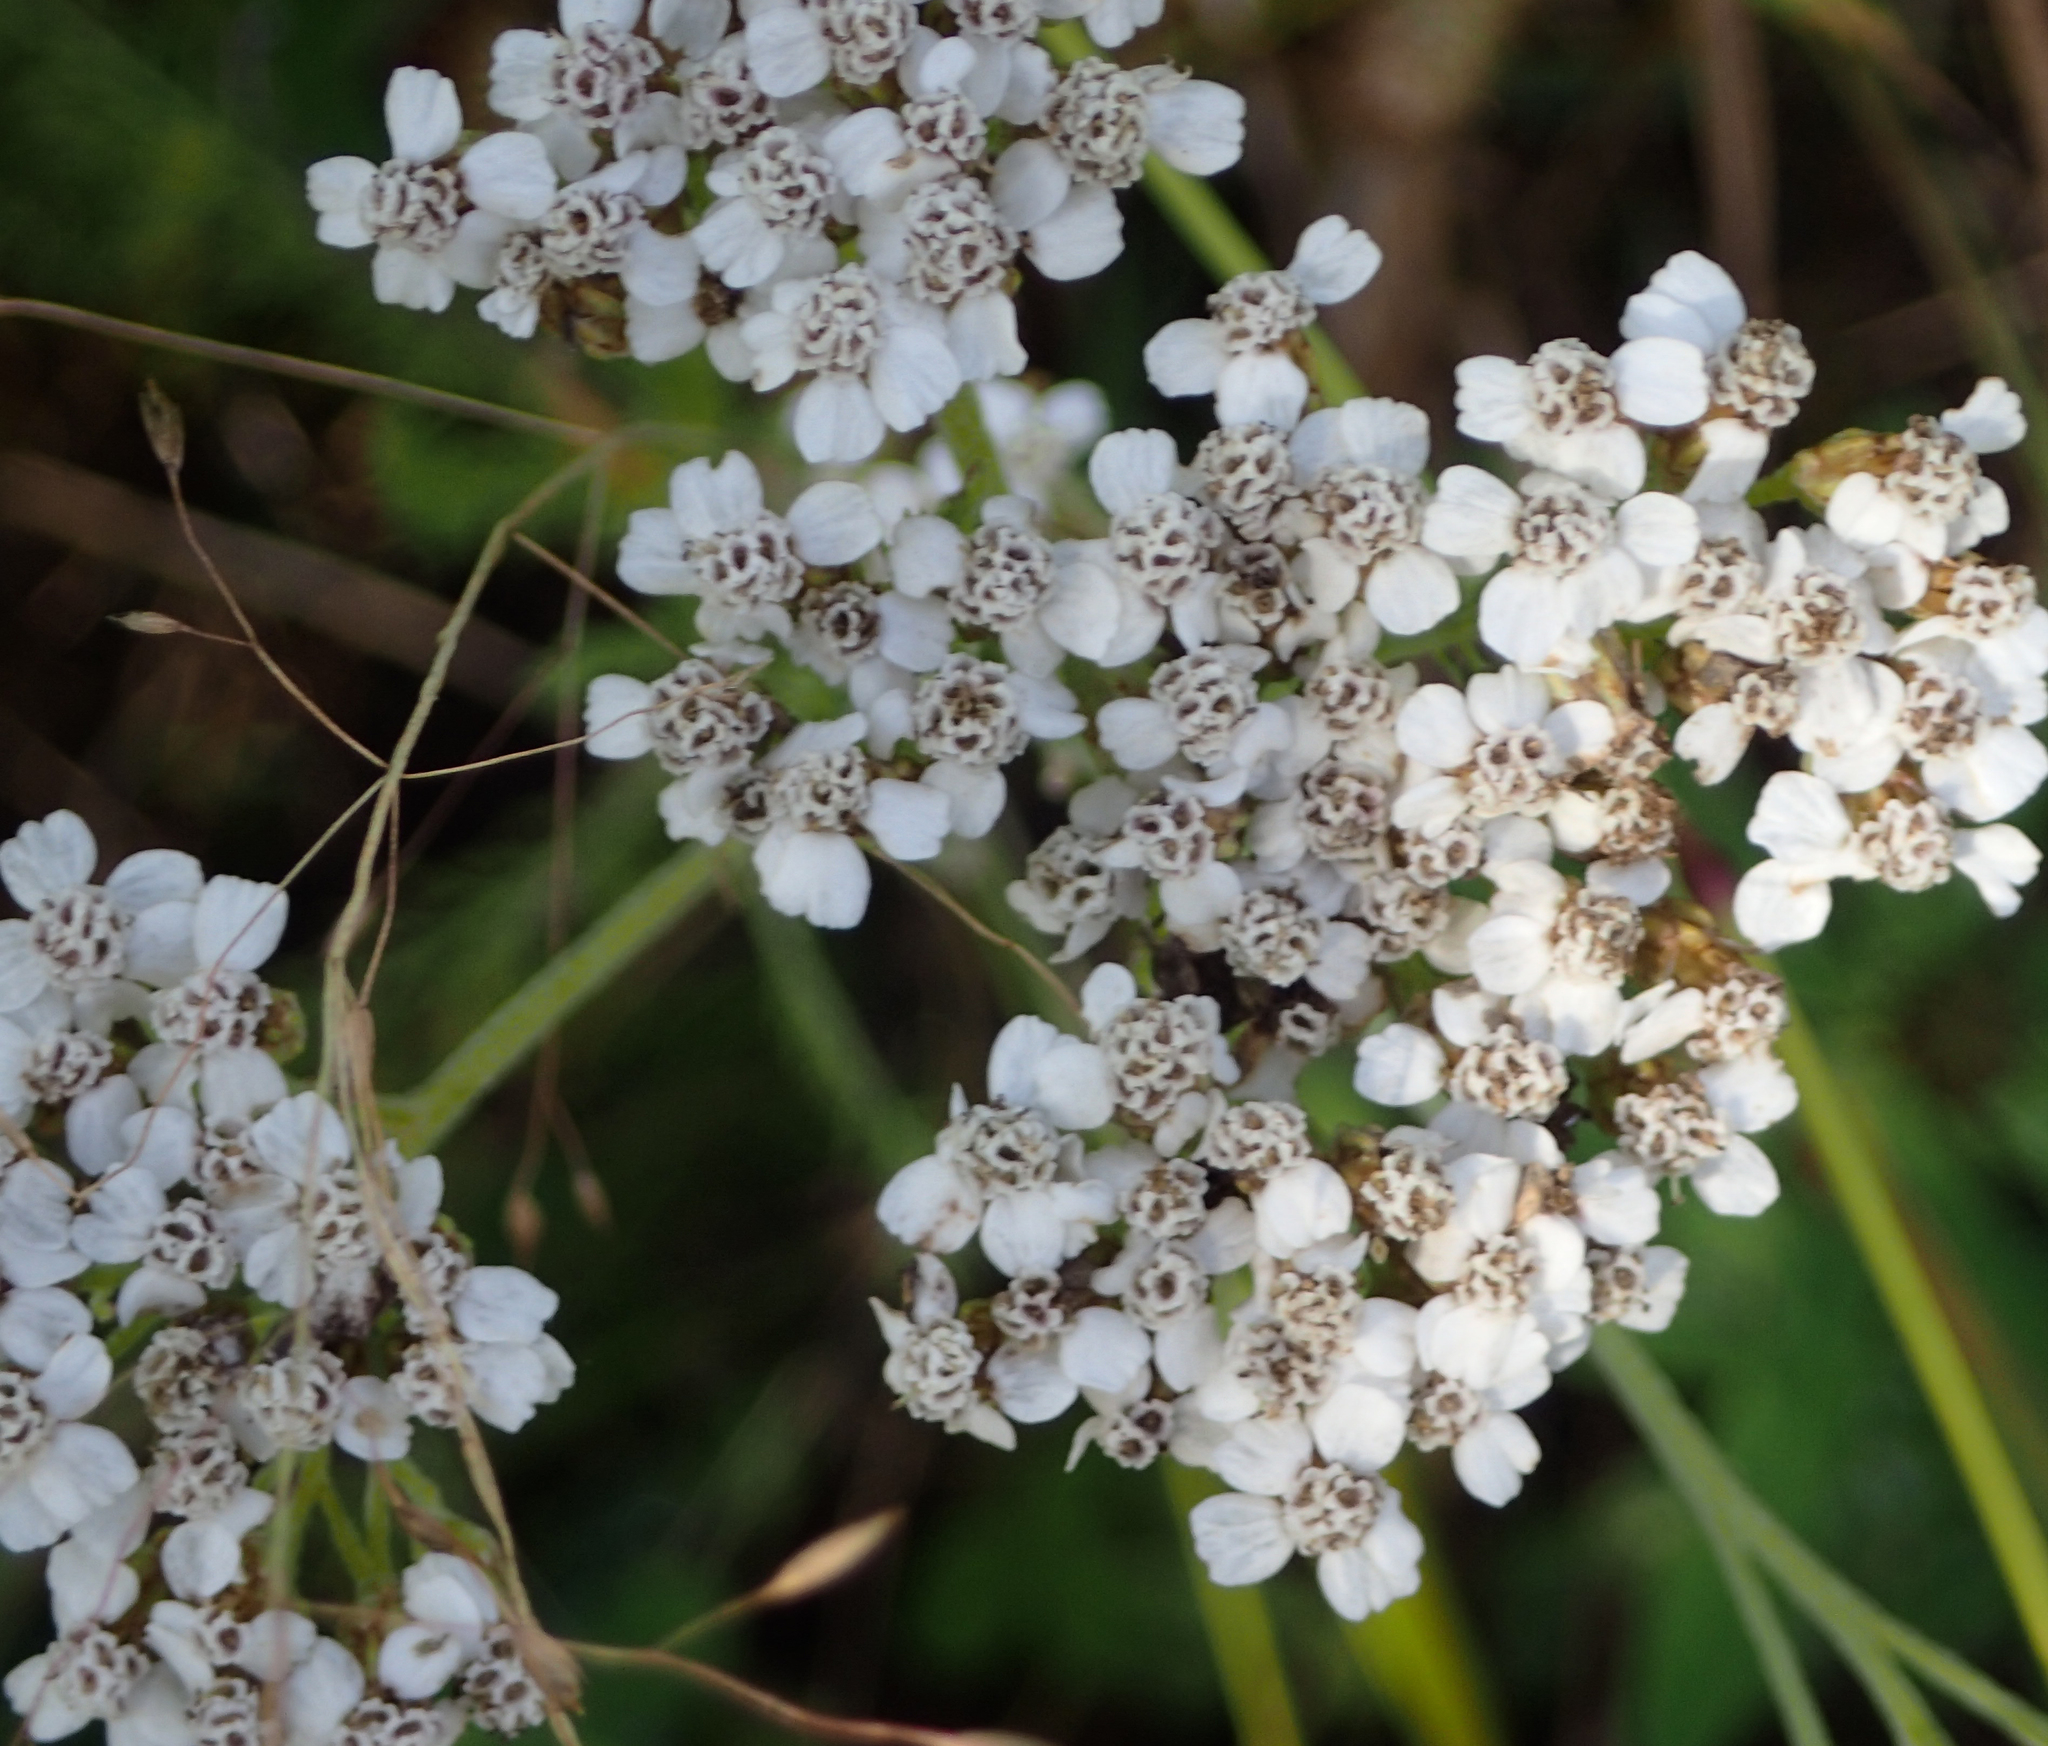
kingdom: Plantae
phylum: Tracheophyta
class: Magnoliopsida
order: Asterales
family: Asteraceae
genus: Achillea
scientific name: Achillea millefolium
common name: Yarrow
